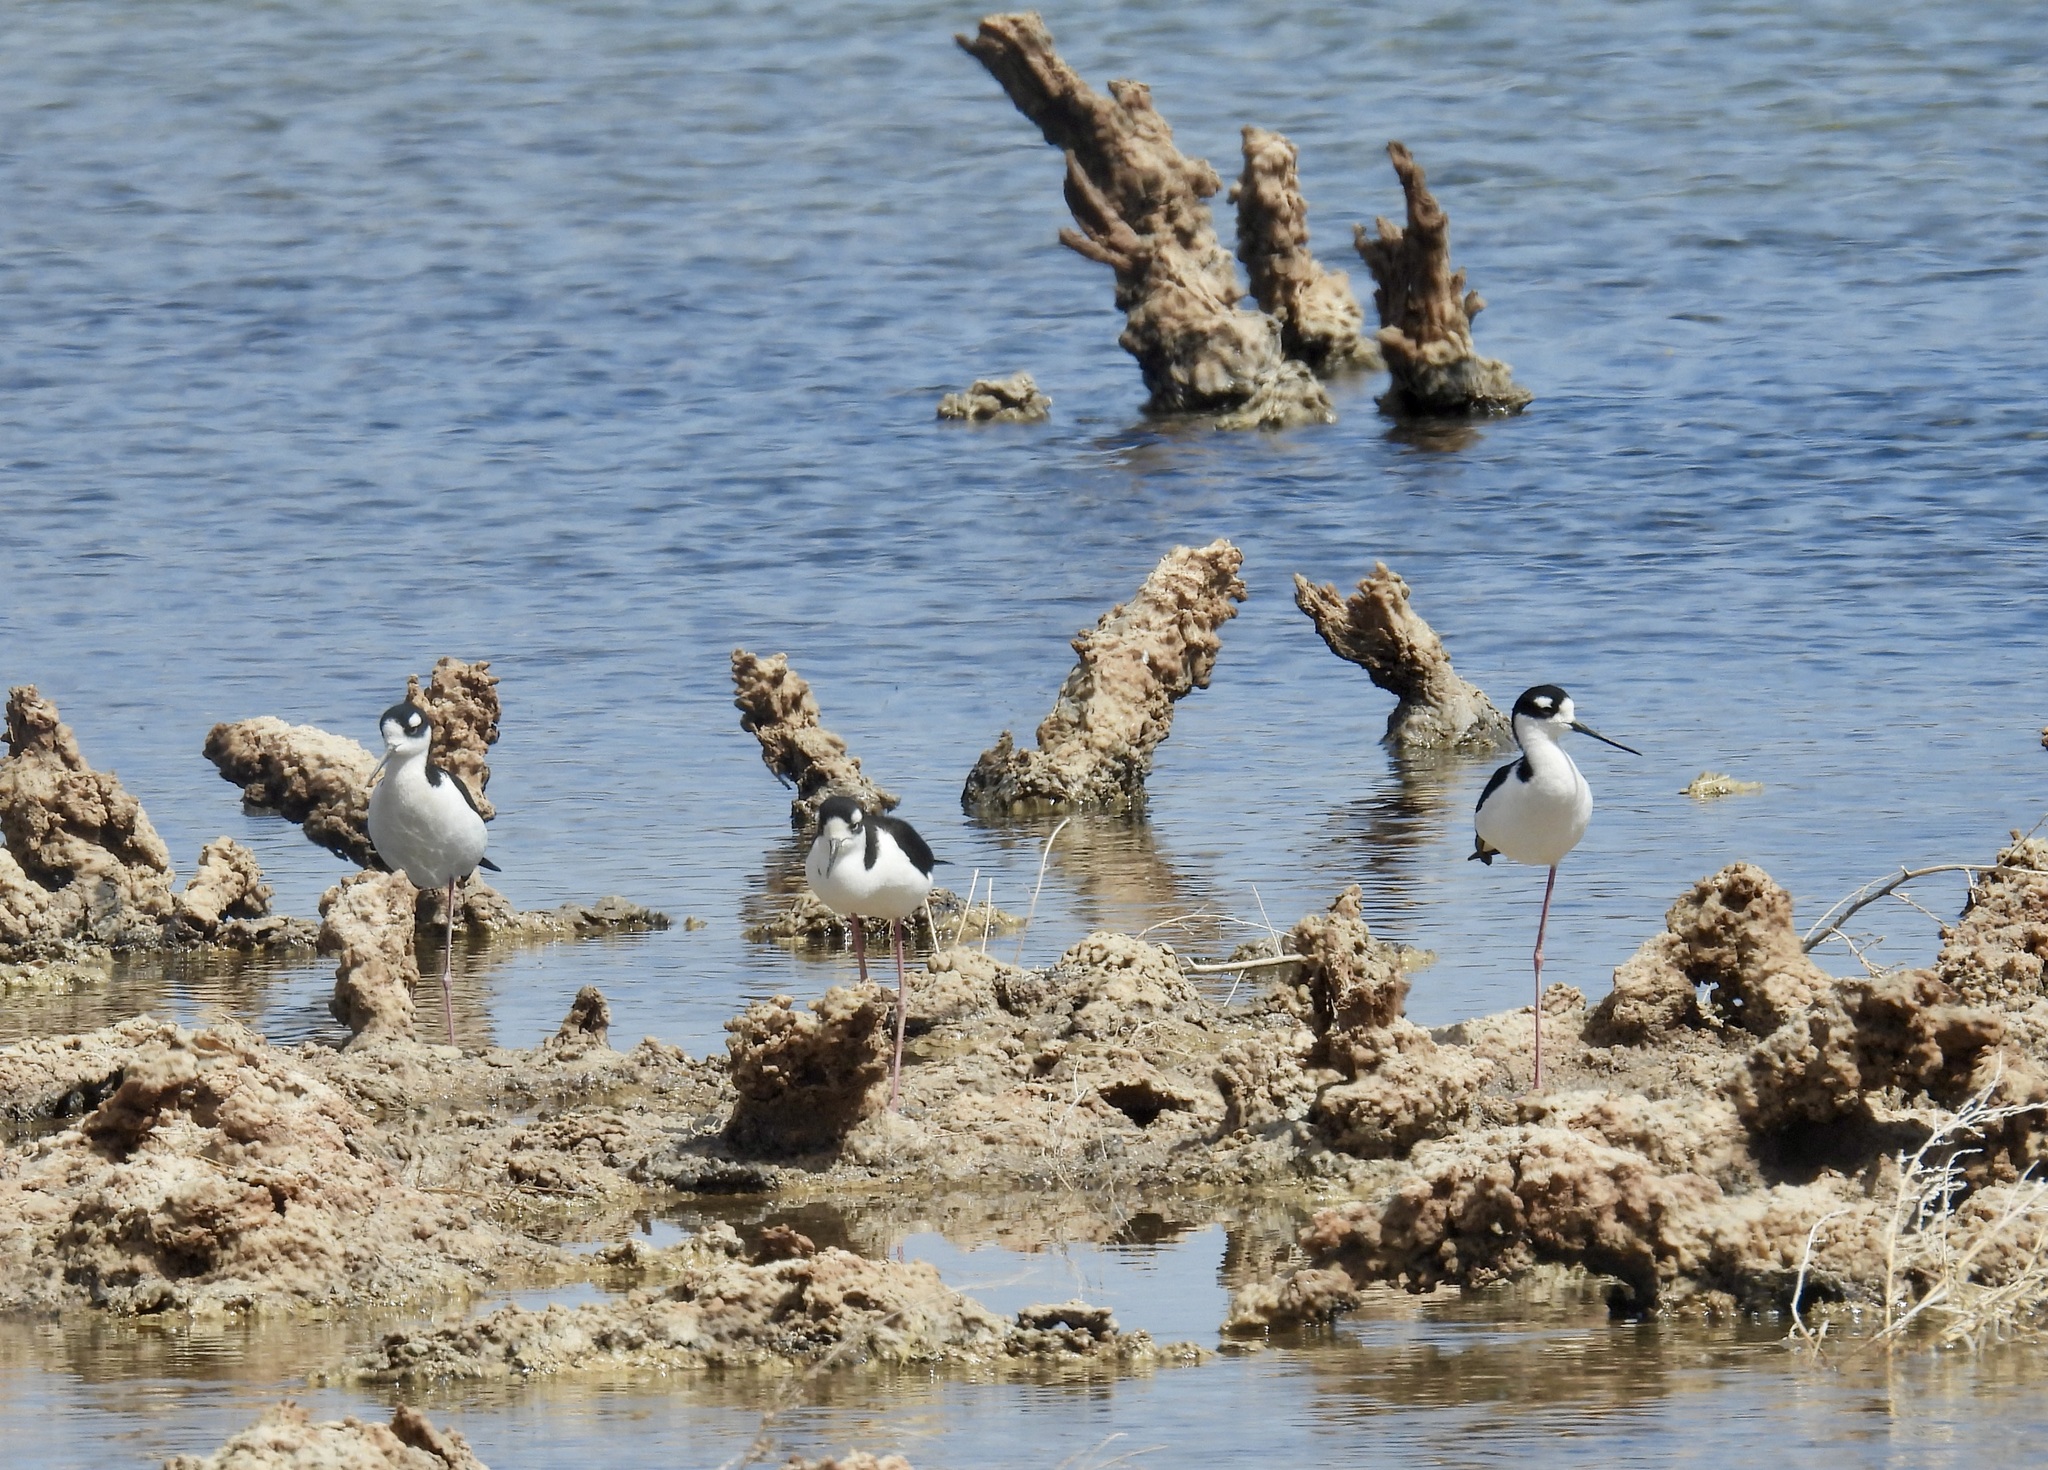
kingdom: Animalia
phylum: Chordata
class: Aves
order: Charadriiformes
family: Recurvirostridae
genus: Himantopus
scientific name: Himantopus mexicanus
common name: Black-necked stilt
